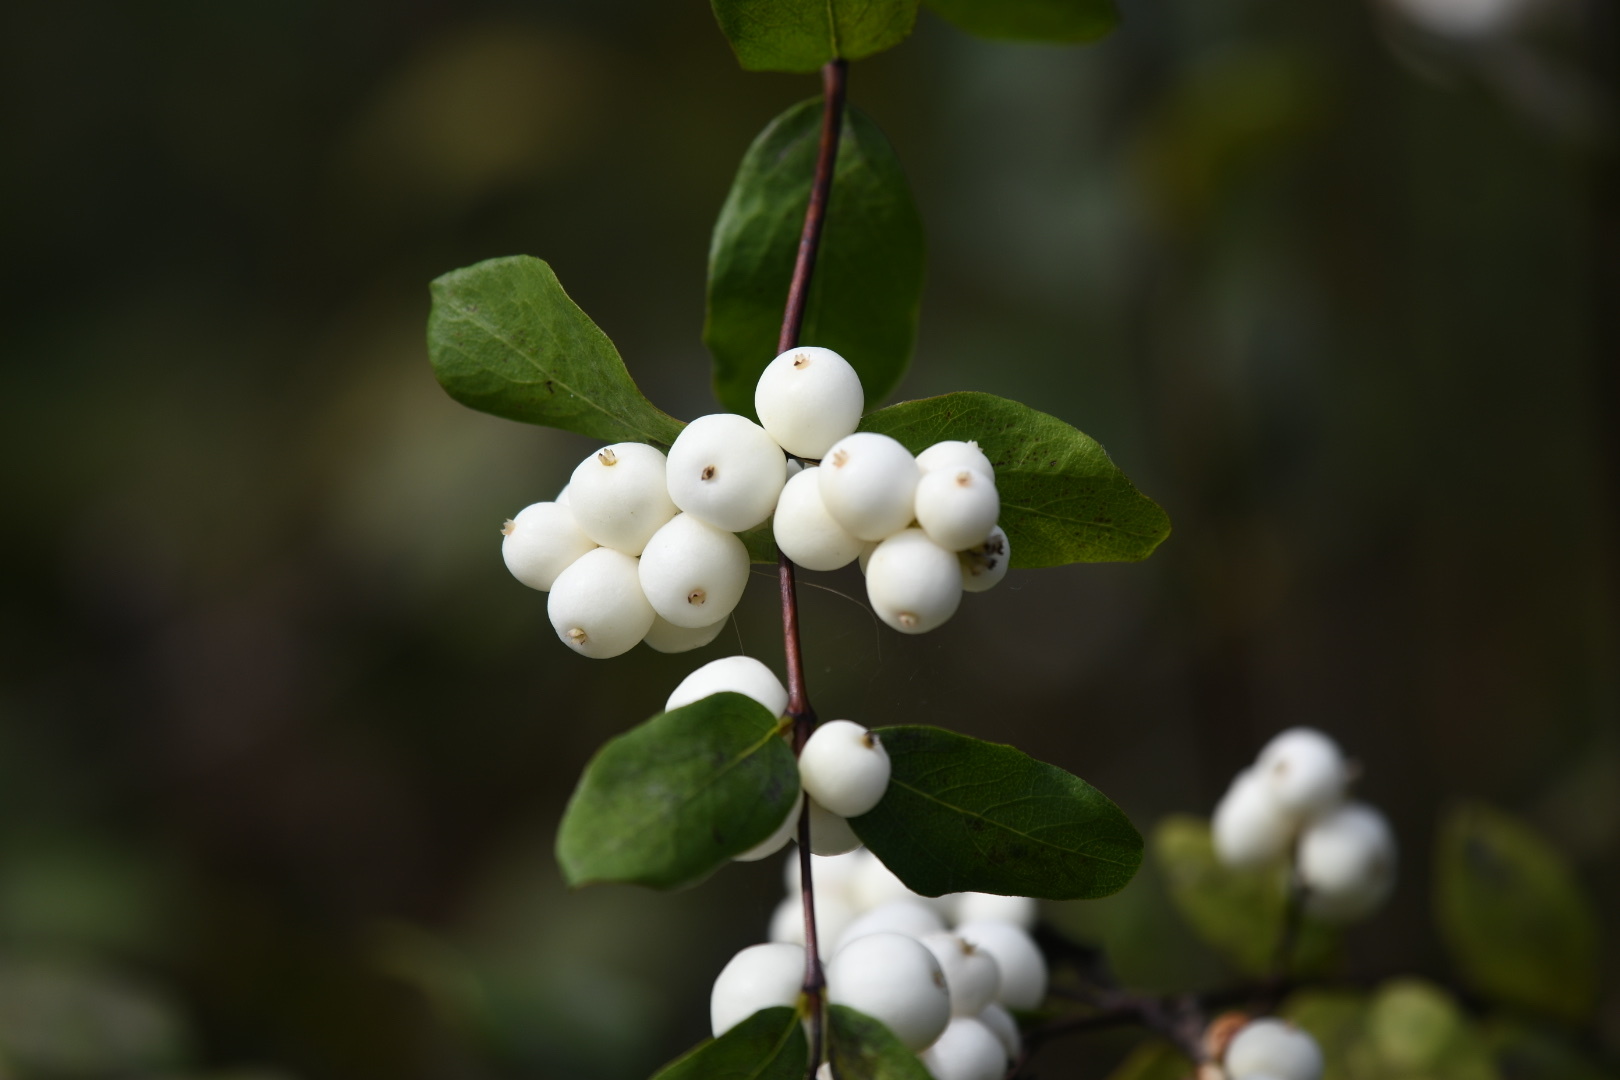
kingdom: Plantae
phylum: Tracheophyta
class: Magnoliopsida
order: Dipsacales
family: Caprifoliaceae
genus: Symphoricarpos
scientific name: Symphoricarpos albus
